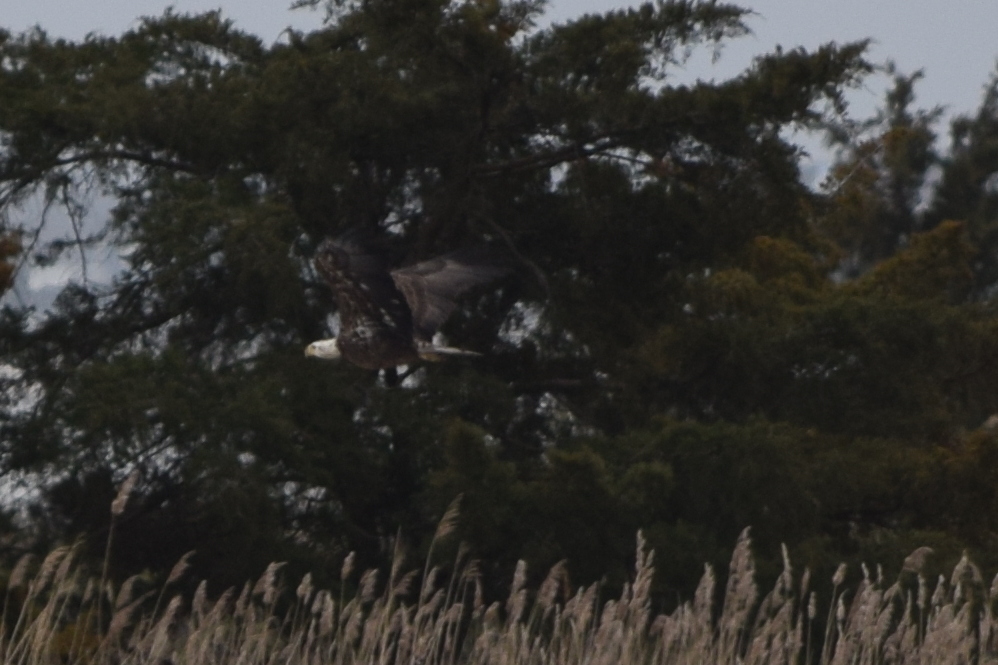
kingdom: Animalia
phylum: Chordata
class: Aves
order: Accipitriformes
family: Accipitridae
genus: Haliaeetus
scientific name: Haliaeetus leucocephalus
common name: Bald eagle
